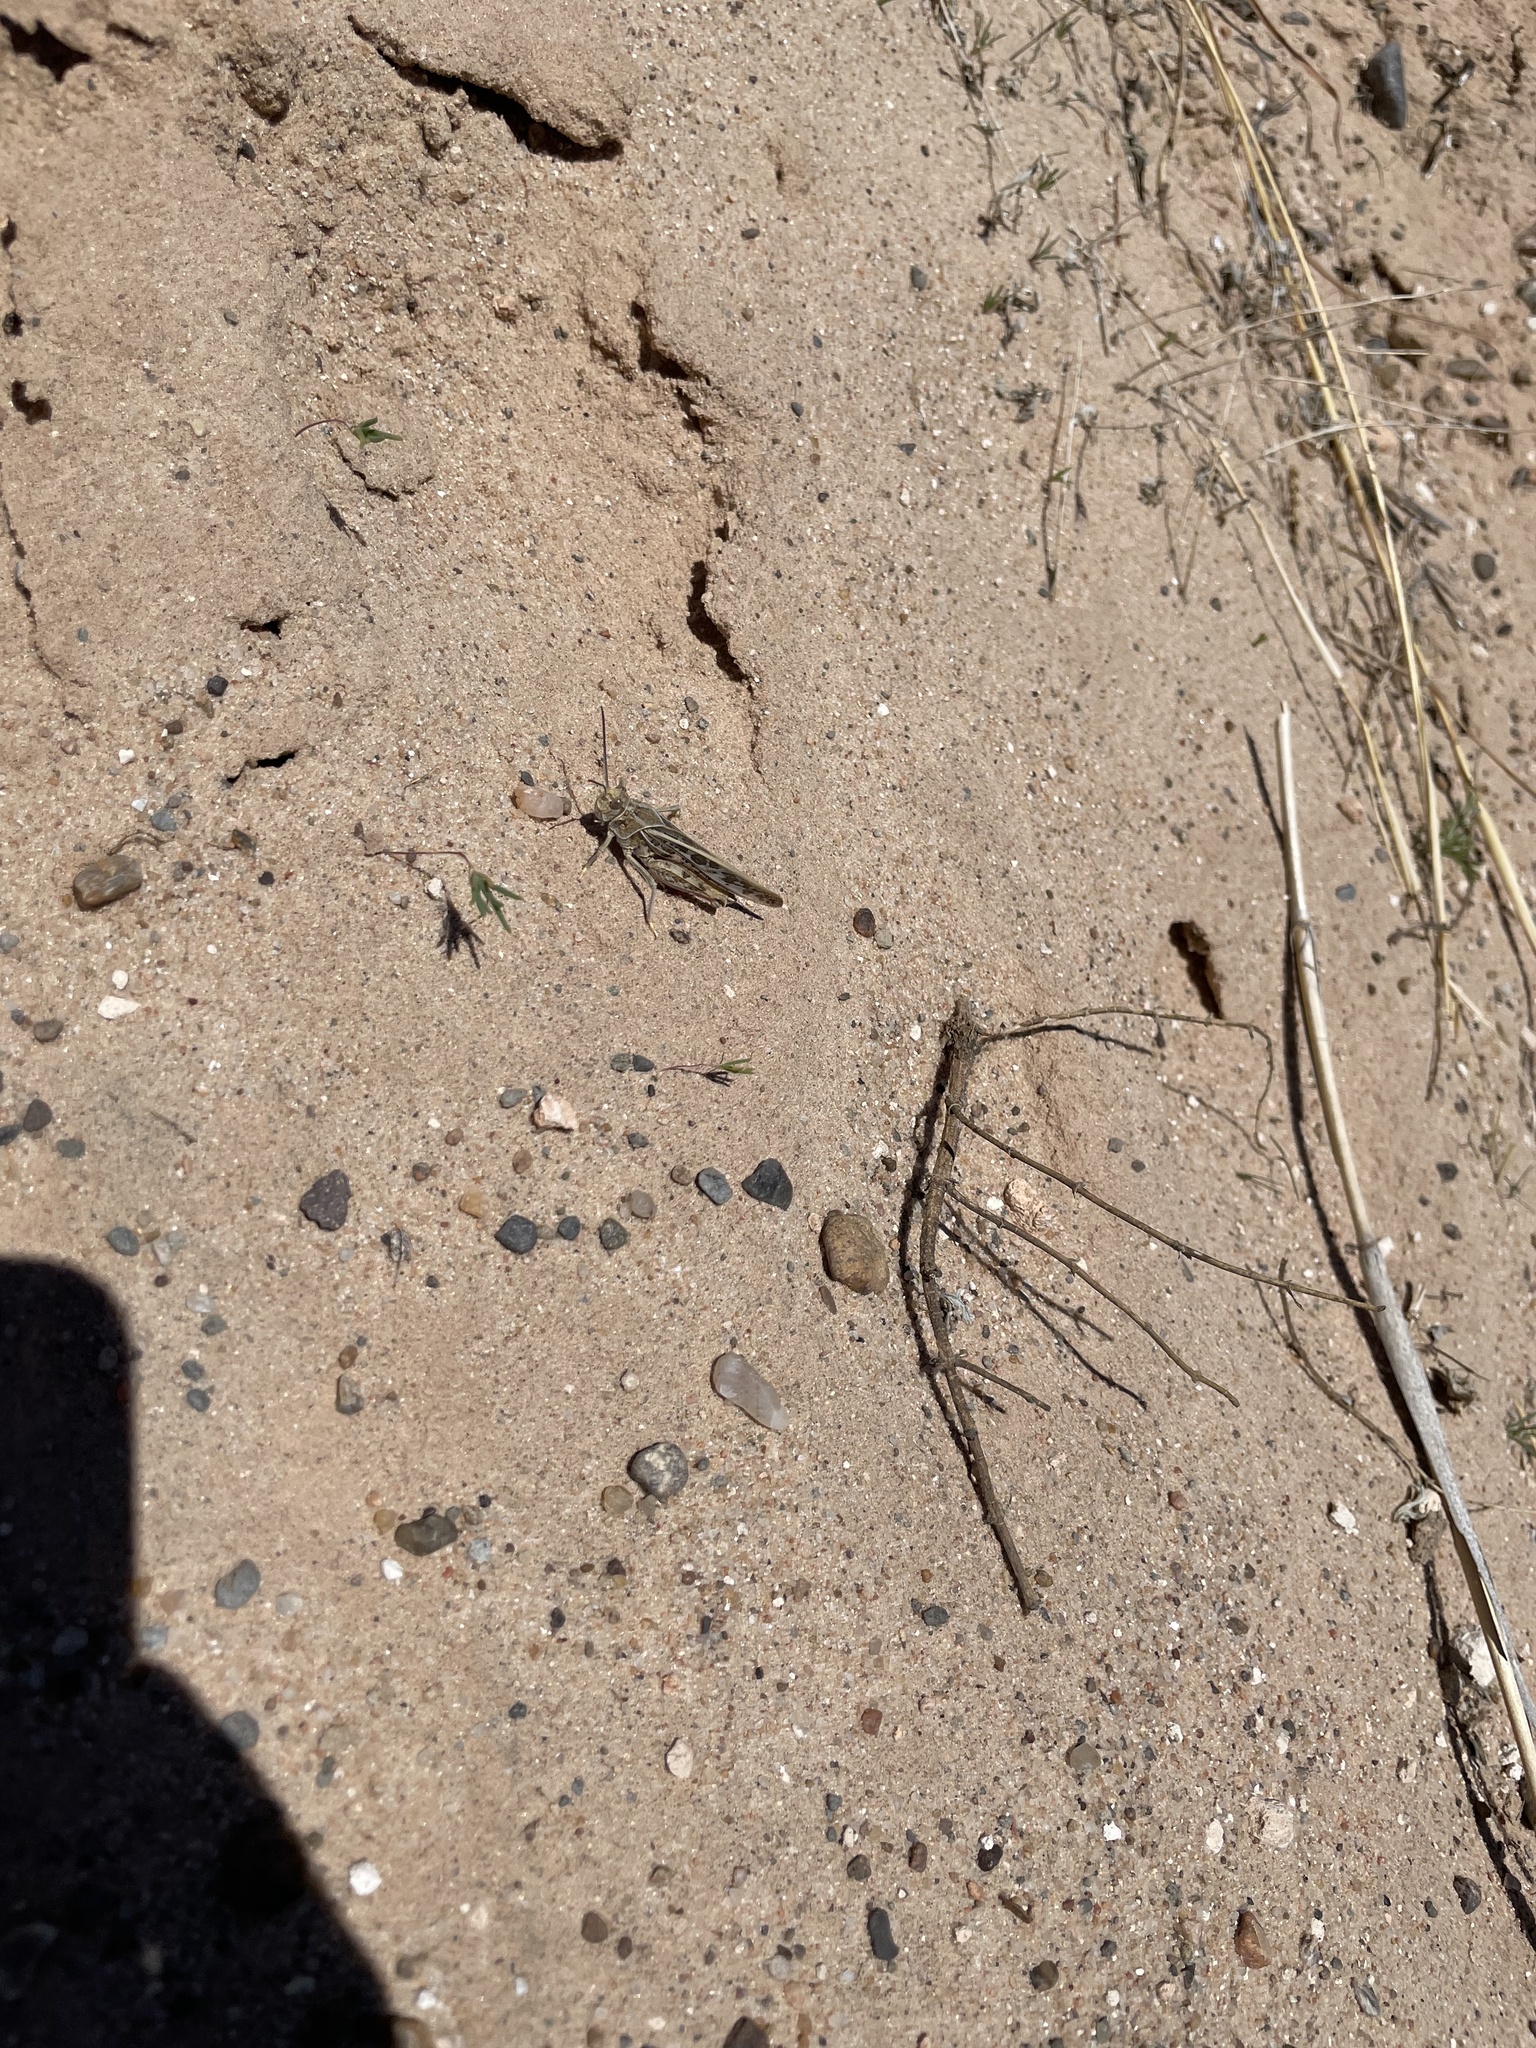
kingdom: Animalia
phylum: Arthropoda
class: Insecta
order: Orthoptera
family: Acrididae
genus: Xanthippus
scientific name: Xanthippus montanus
